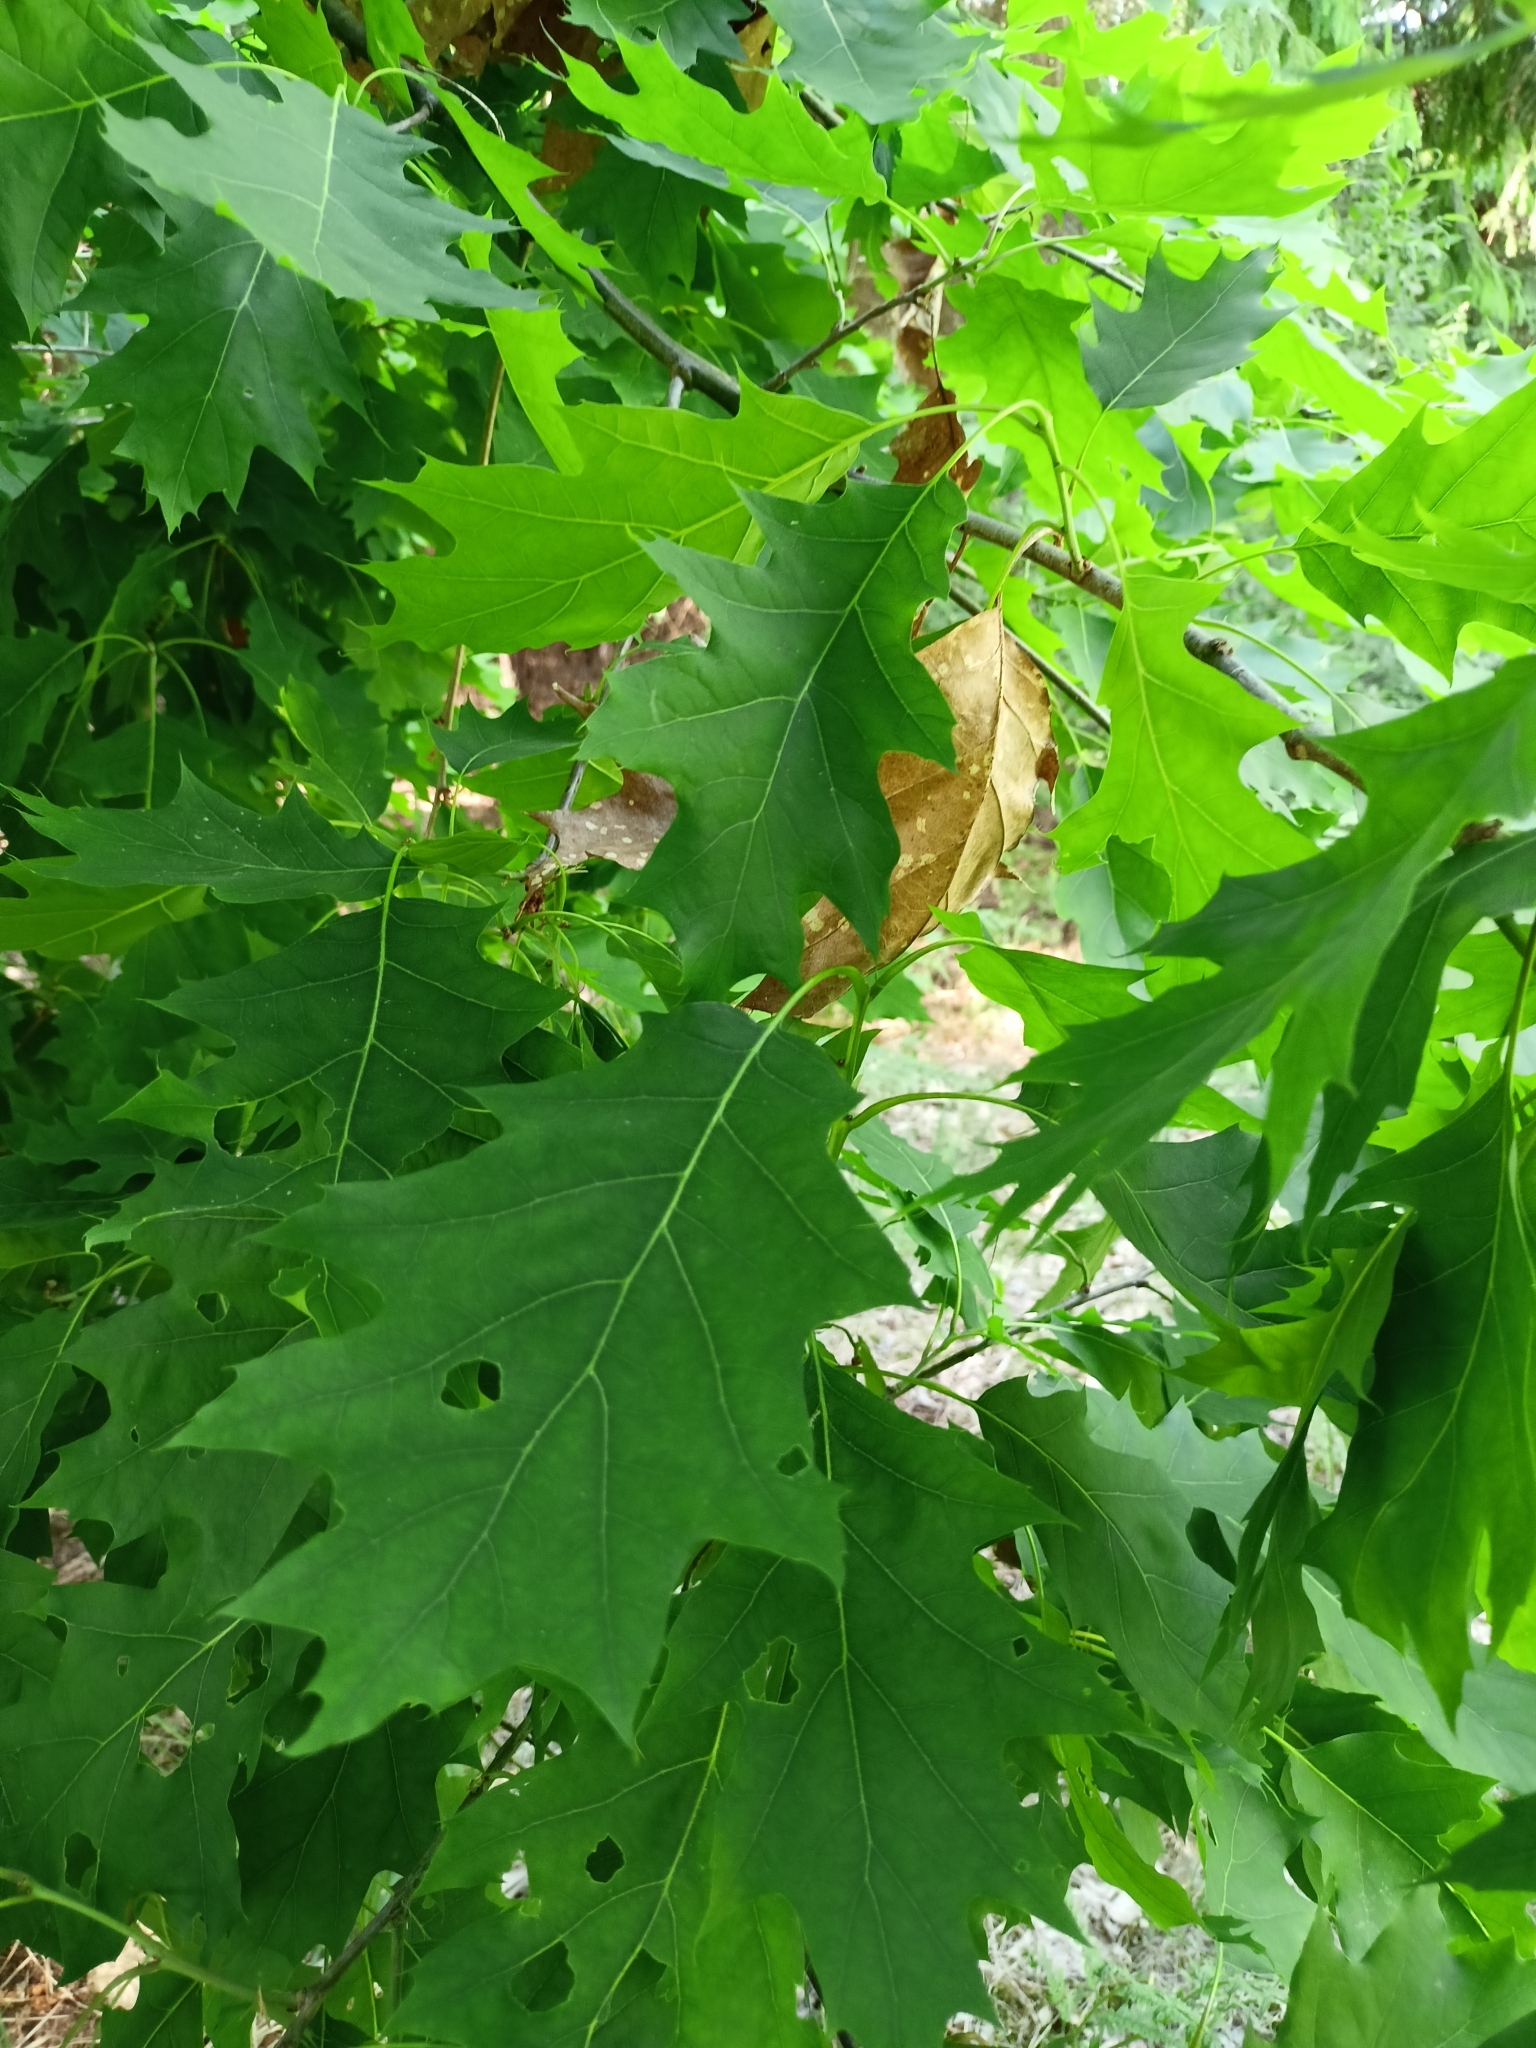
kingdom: Plantae
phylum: Tracheophyta
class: Magnoliopsida
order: Fagales
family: Fagaceae
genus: Quercus
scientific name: Quercus rubra
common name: Red oak
